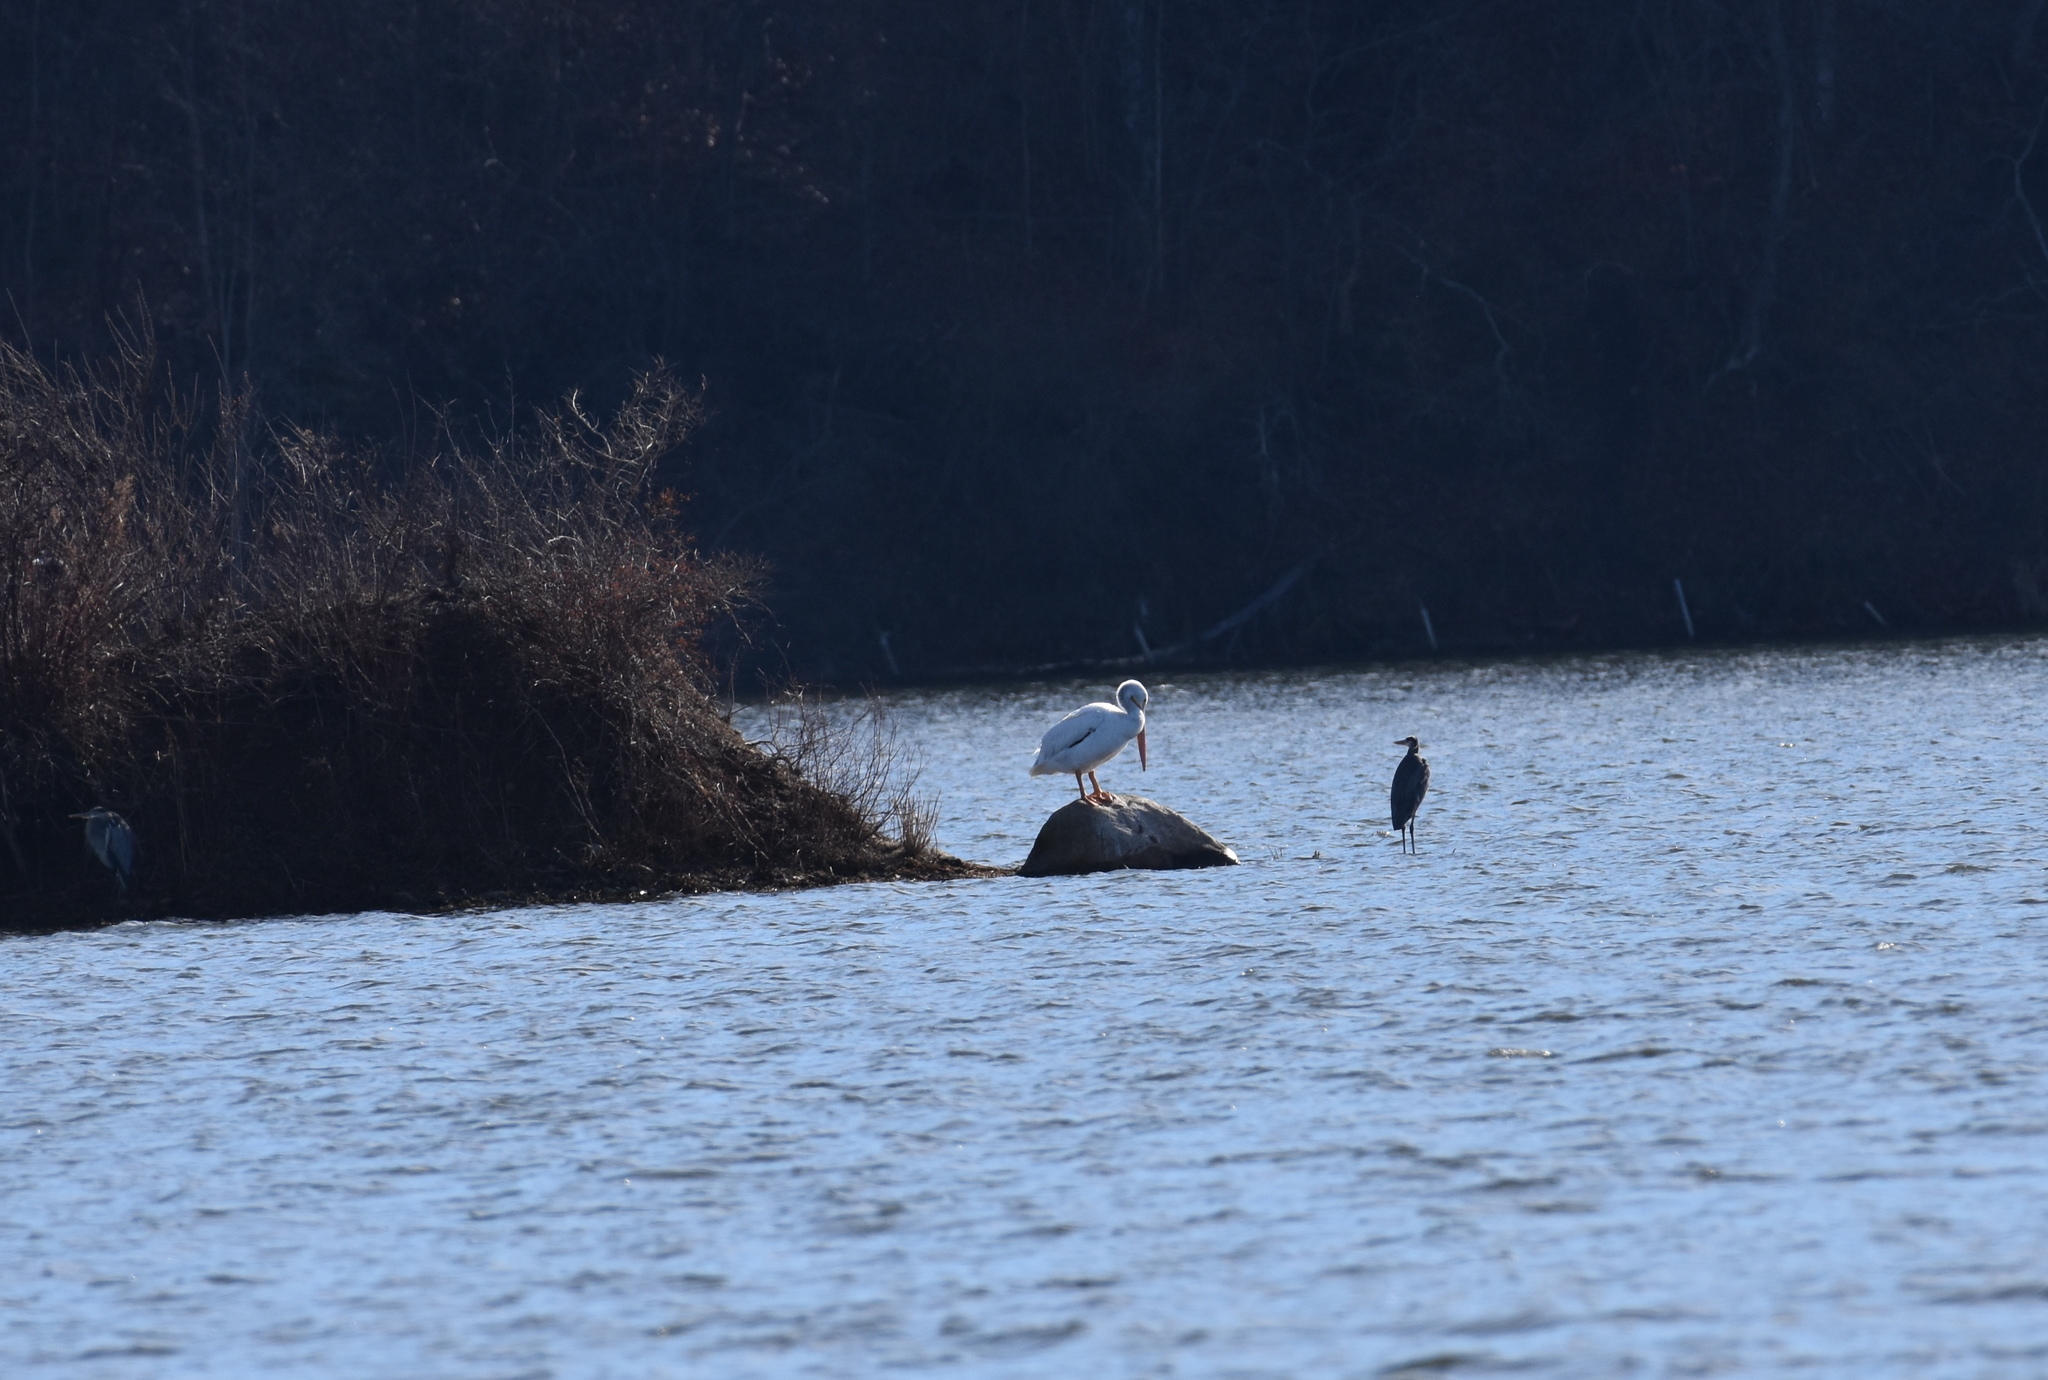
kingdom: Animalia
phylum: Chordata
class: Aves
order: Pelecaniformes
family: Pelecanidae
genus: Pelecanus
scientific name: Pelecanus erythrorhynchos
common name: American white pelican
